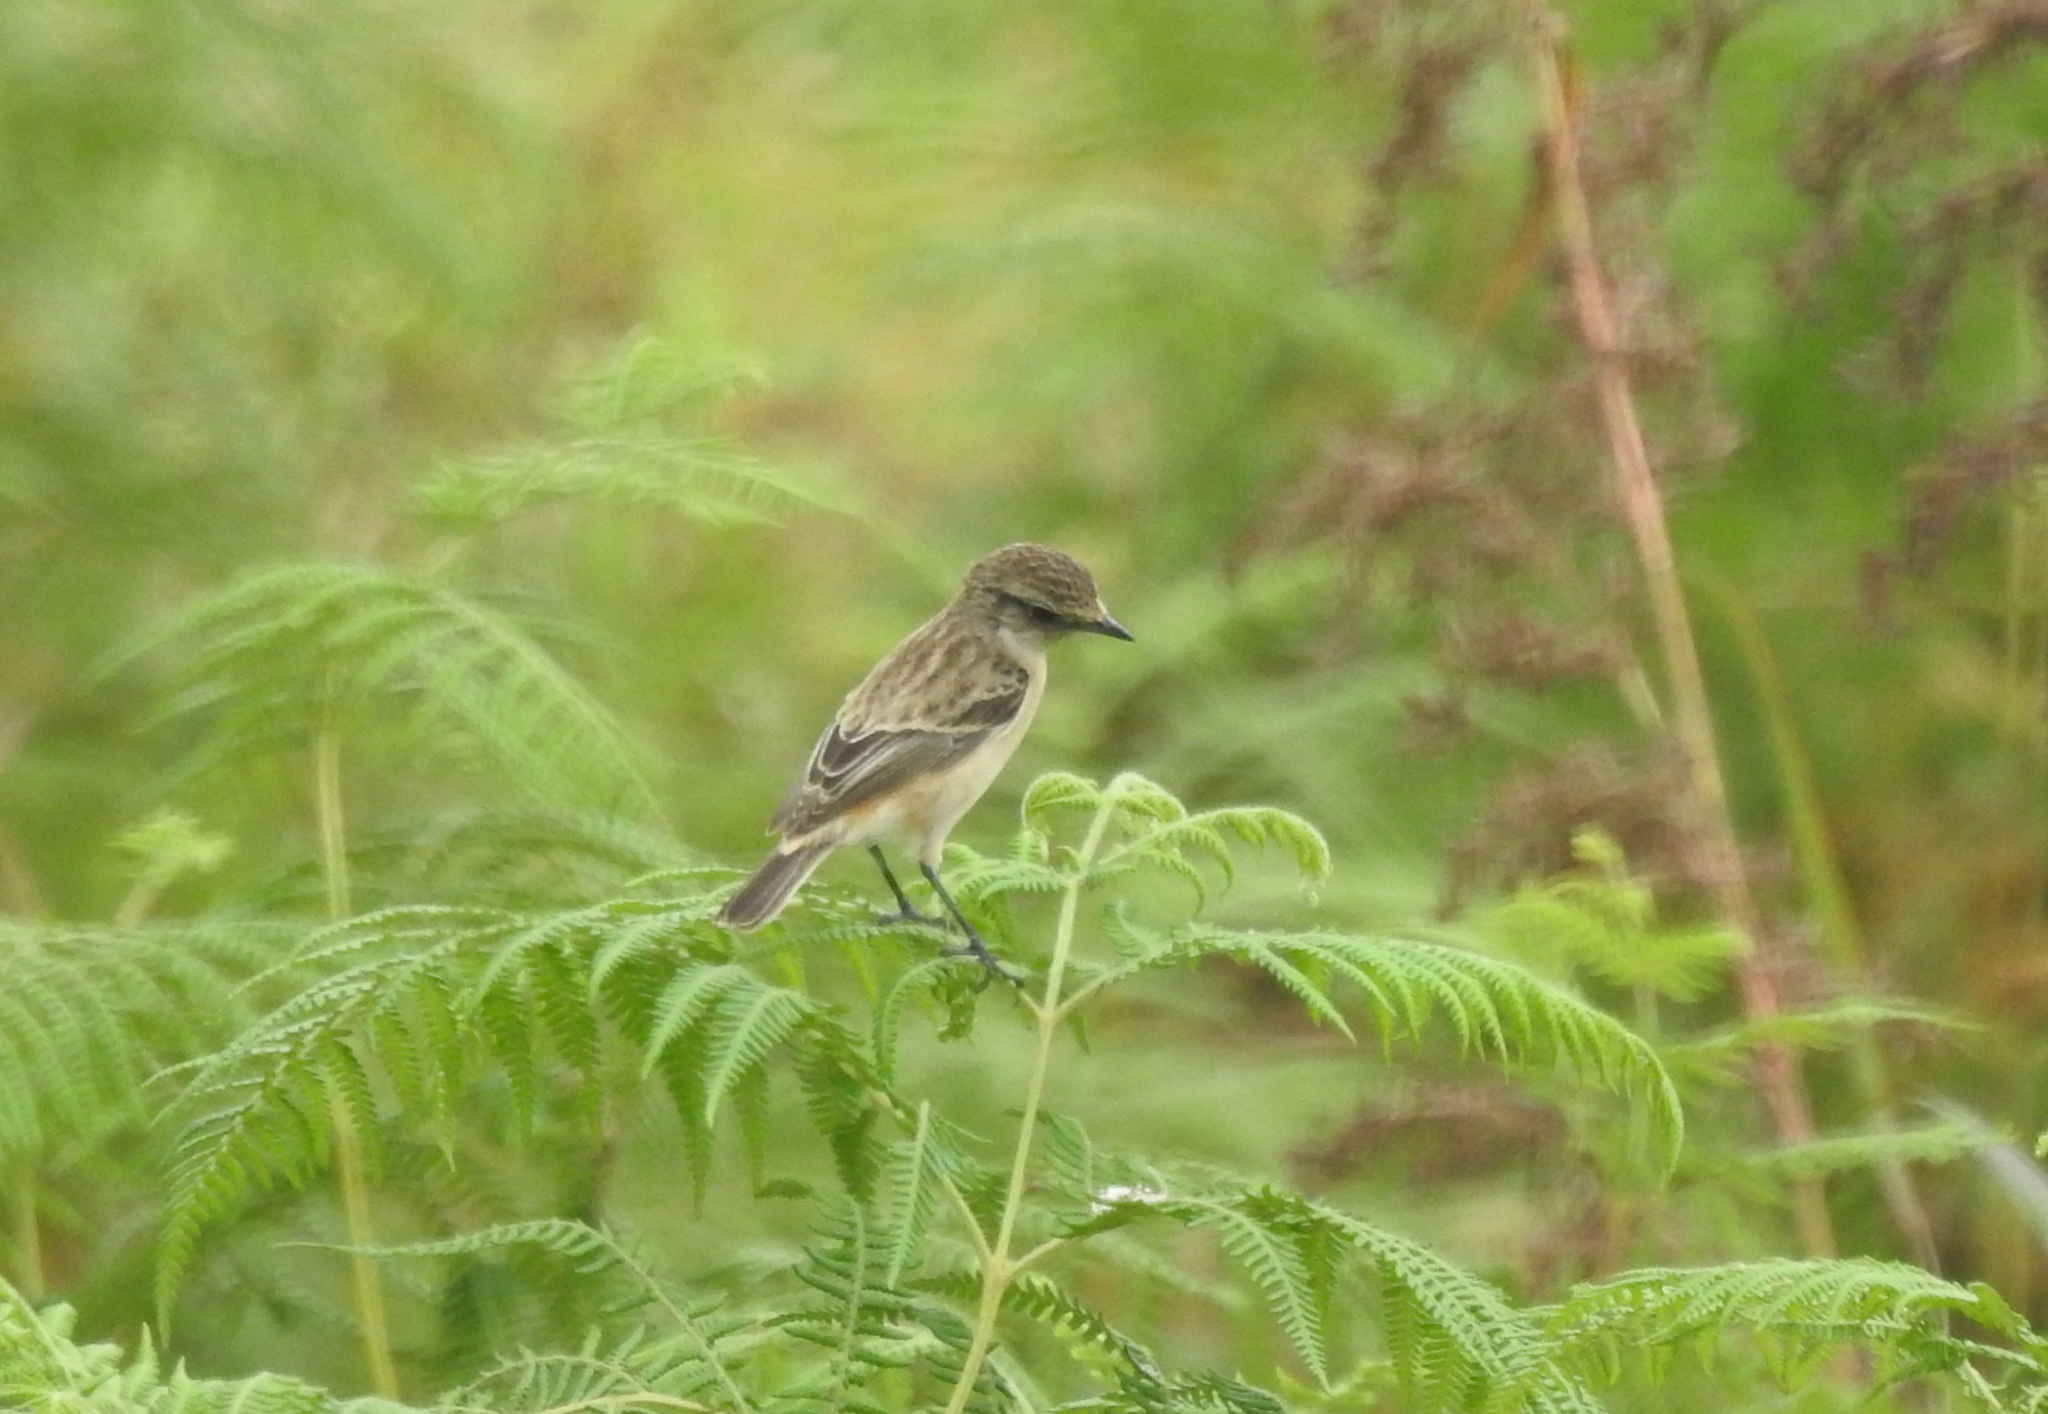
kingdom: Animalia
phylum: Chordata
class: Aves
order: Passeriformes
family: Muscicapidae
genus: Saxicola
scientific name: Saxicola maurus
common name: Siberian stonechat
